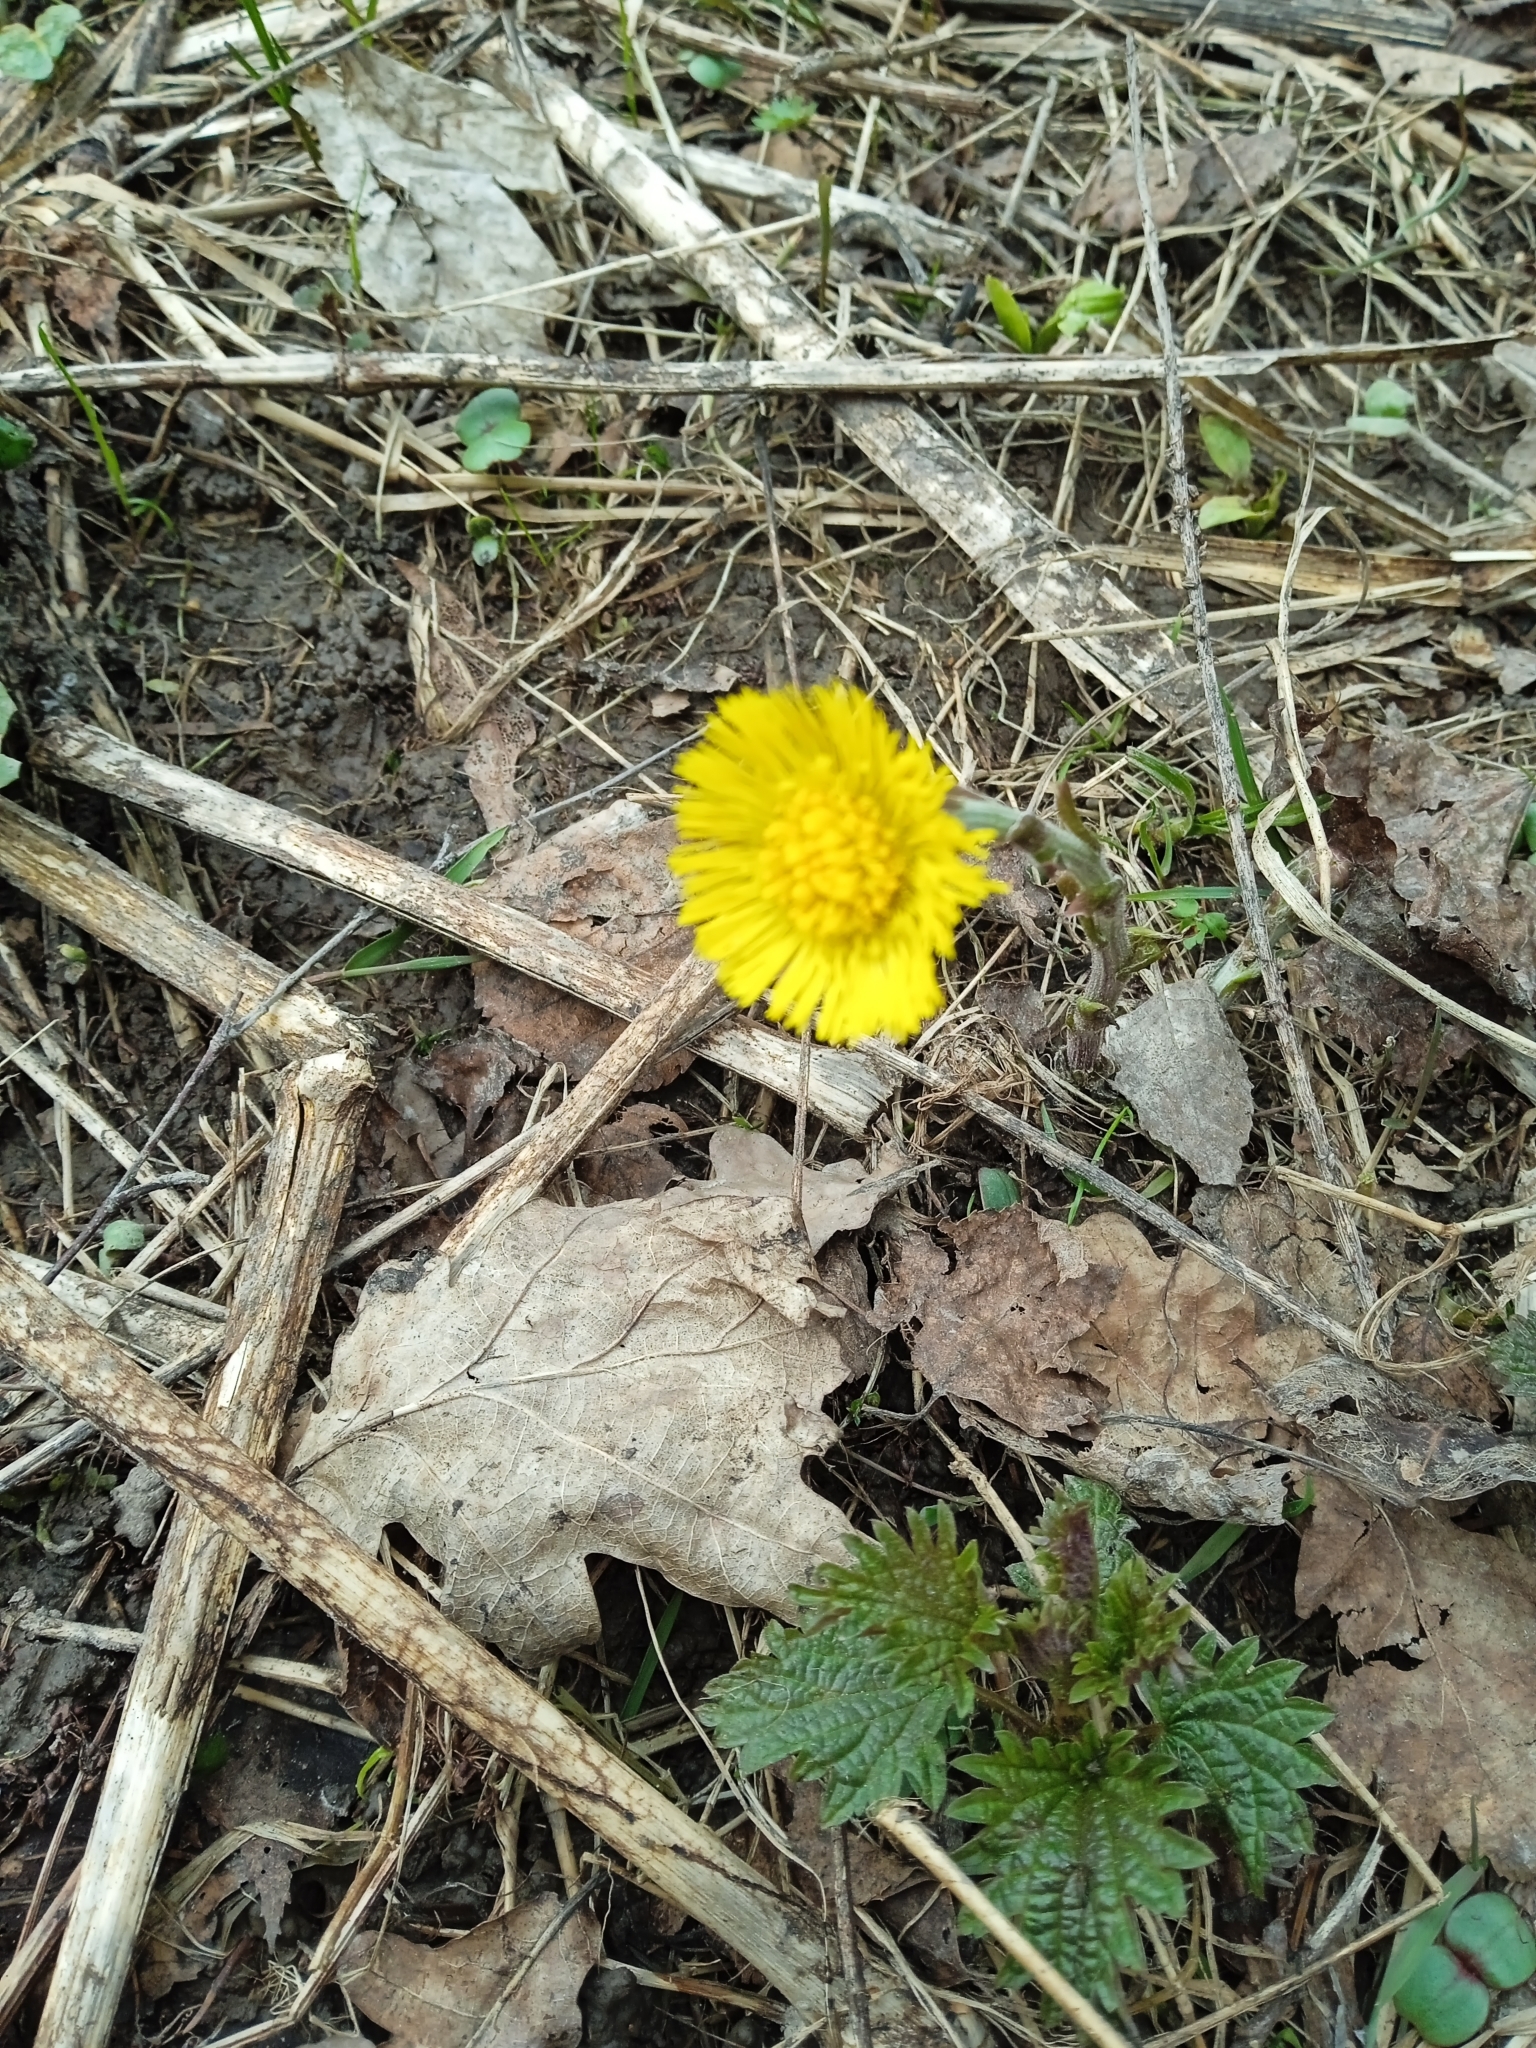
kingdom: Plantae
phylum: Tracheophyta
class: Magnoliopsida
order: Asterales
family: Asteraceae
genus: Tussilago
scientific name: Tussilago farfara
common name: Coltsfoot
